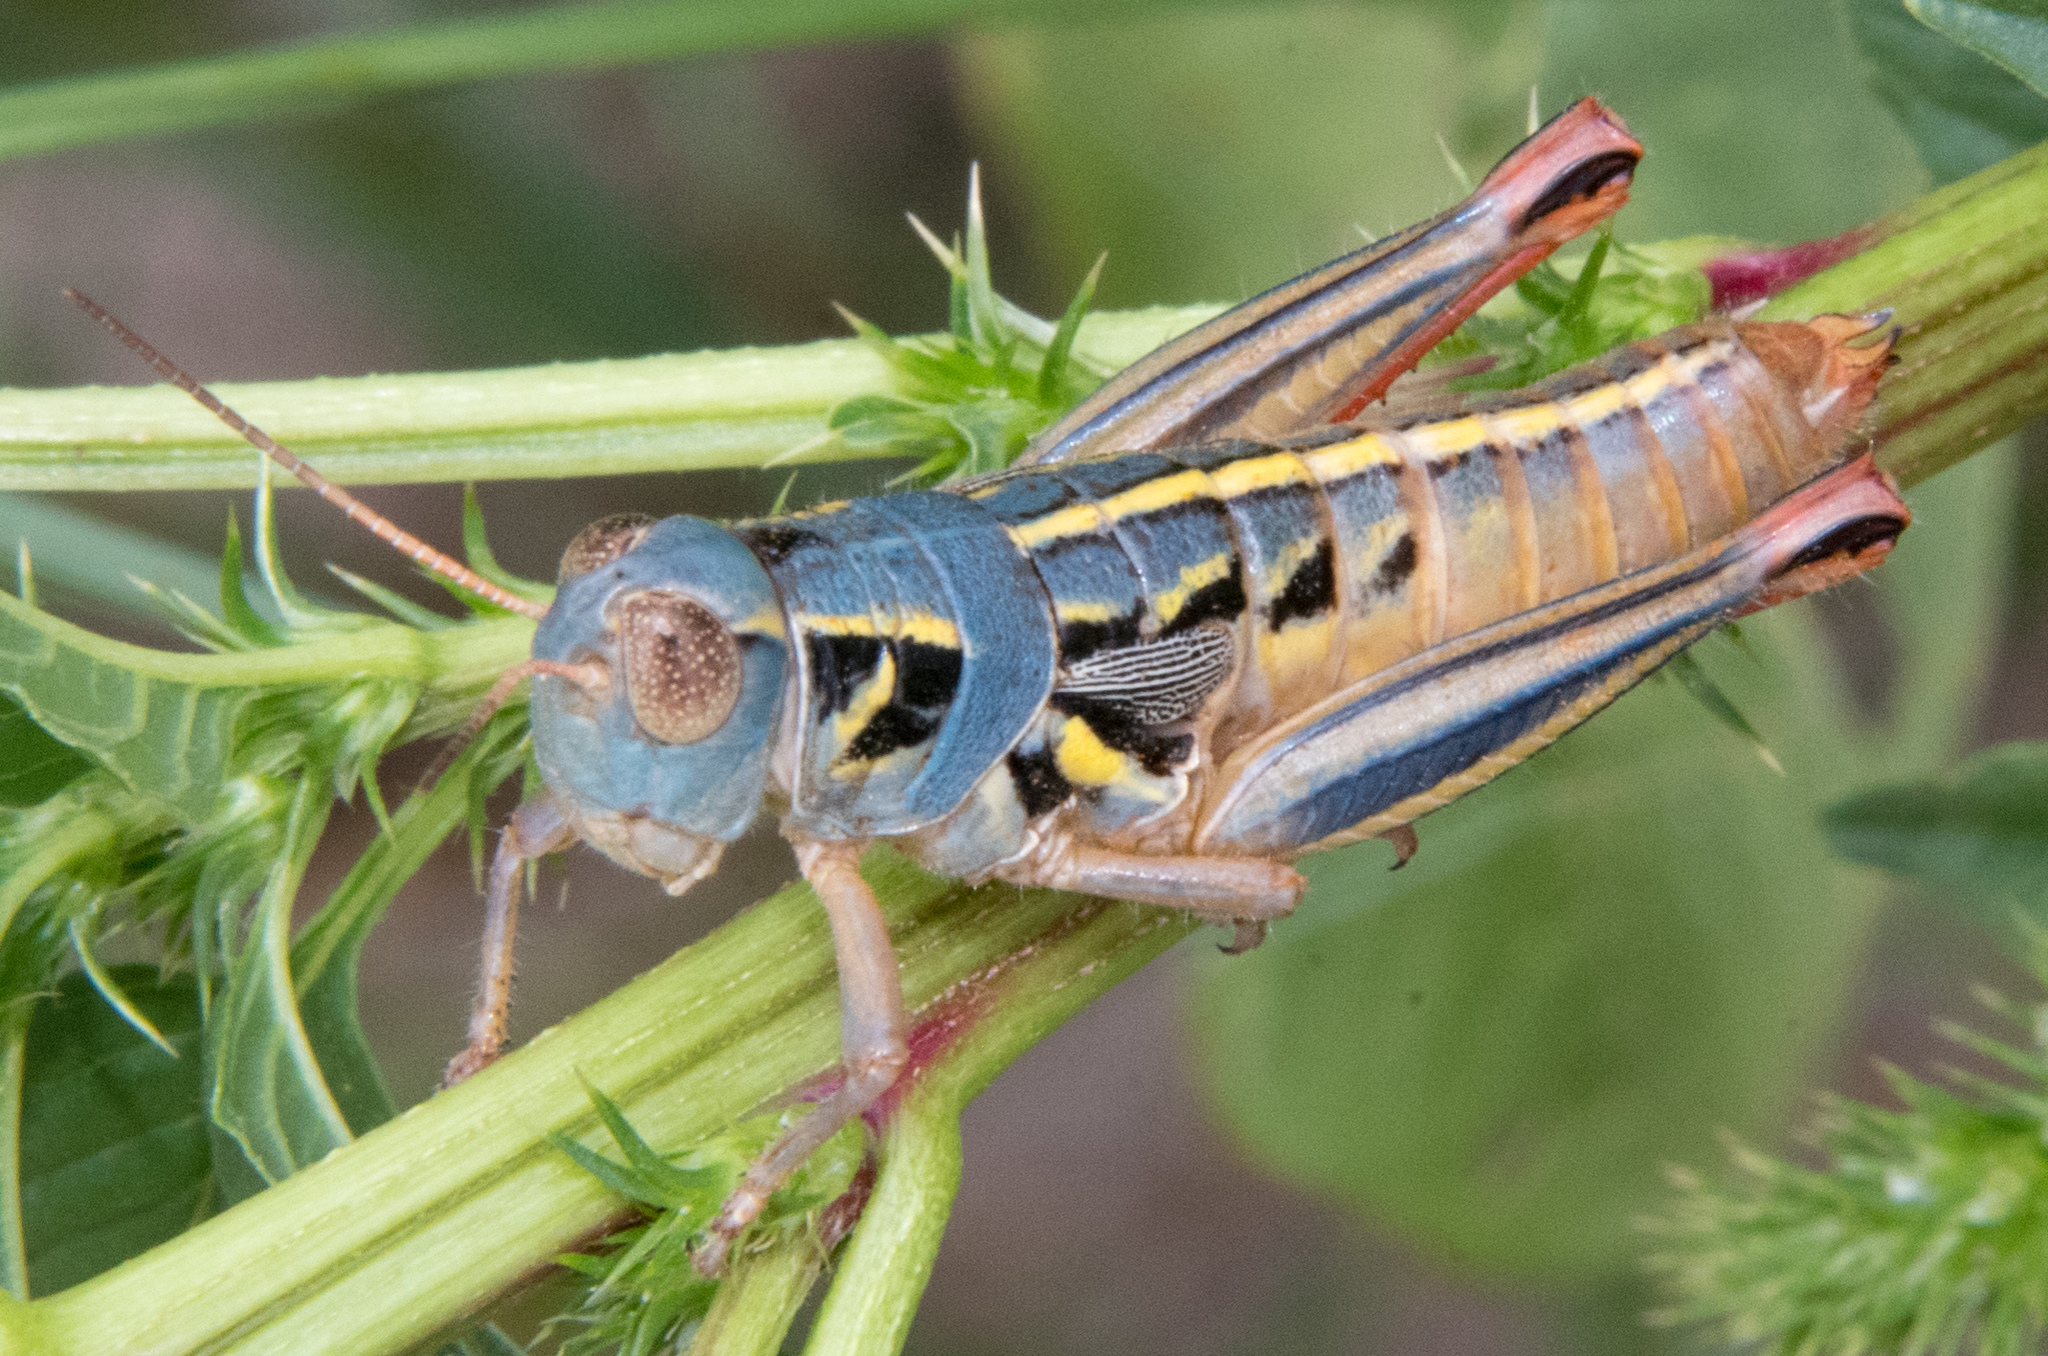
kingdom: Animalia
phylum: Arthropoda
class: Insecta
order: Orthoptera
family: Acrididae
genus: Barytettix
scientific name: Barytettix humphreysii
